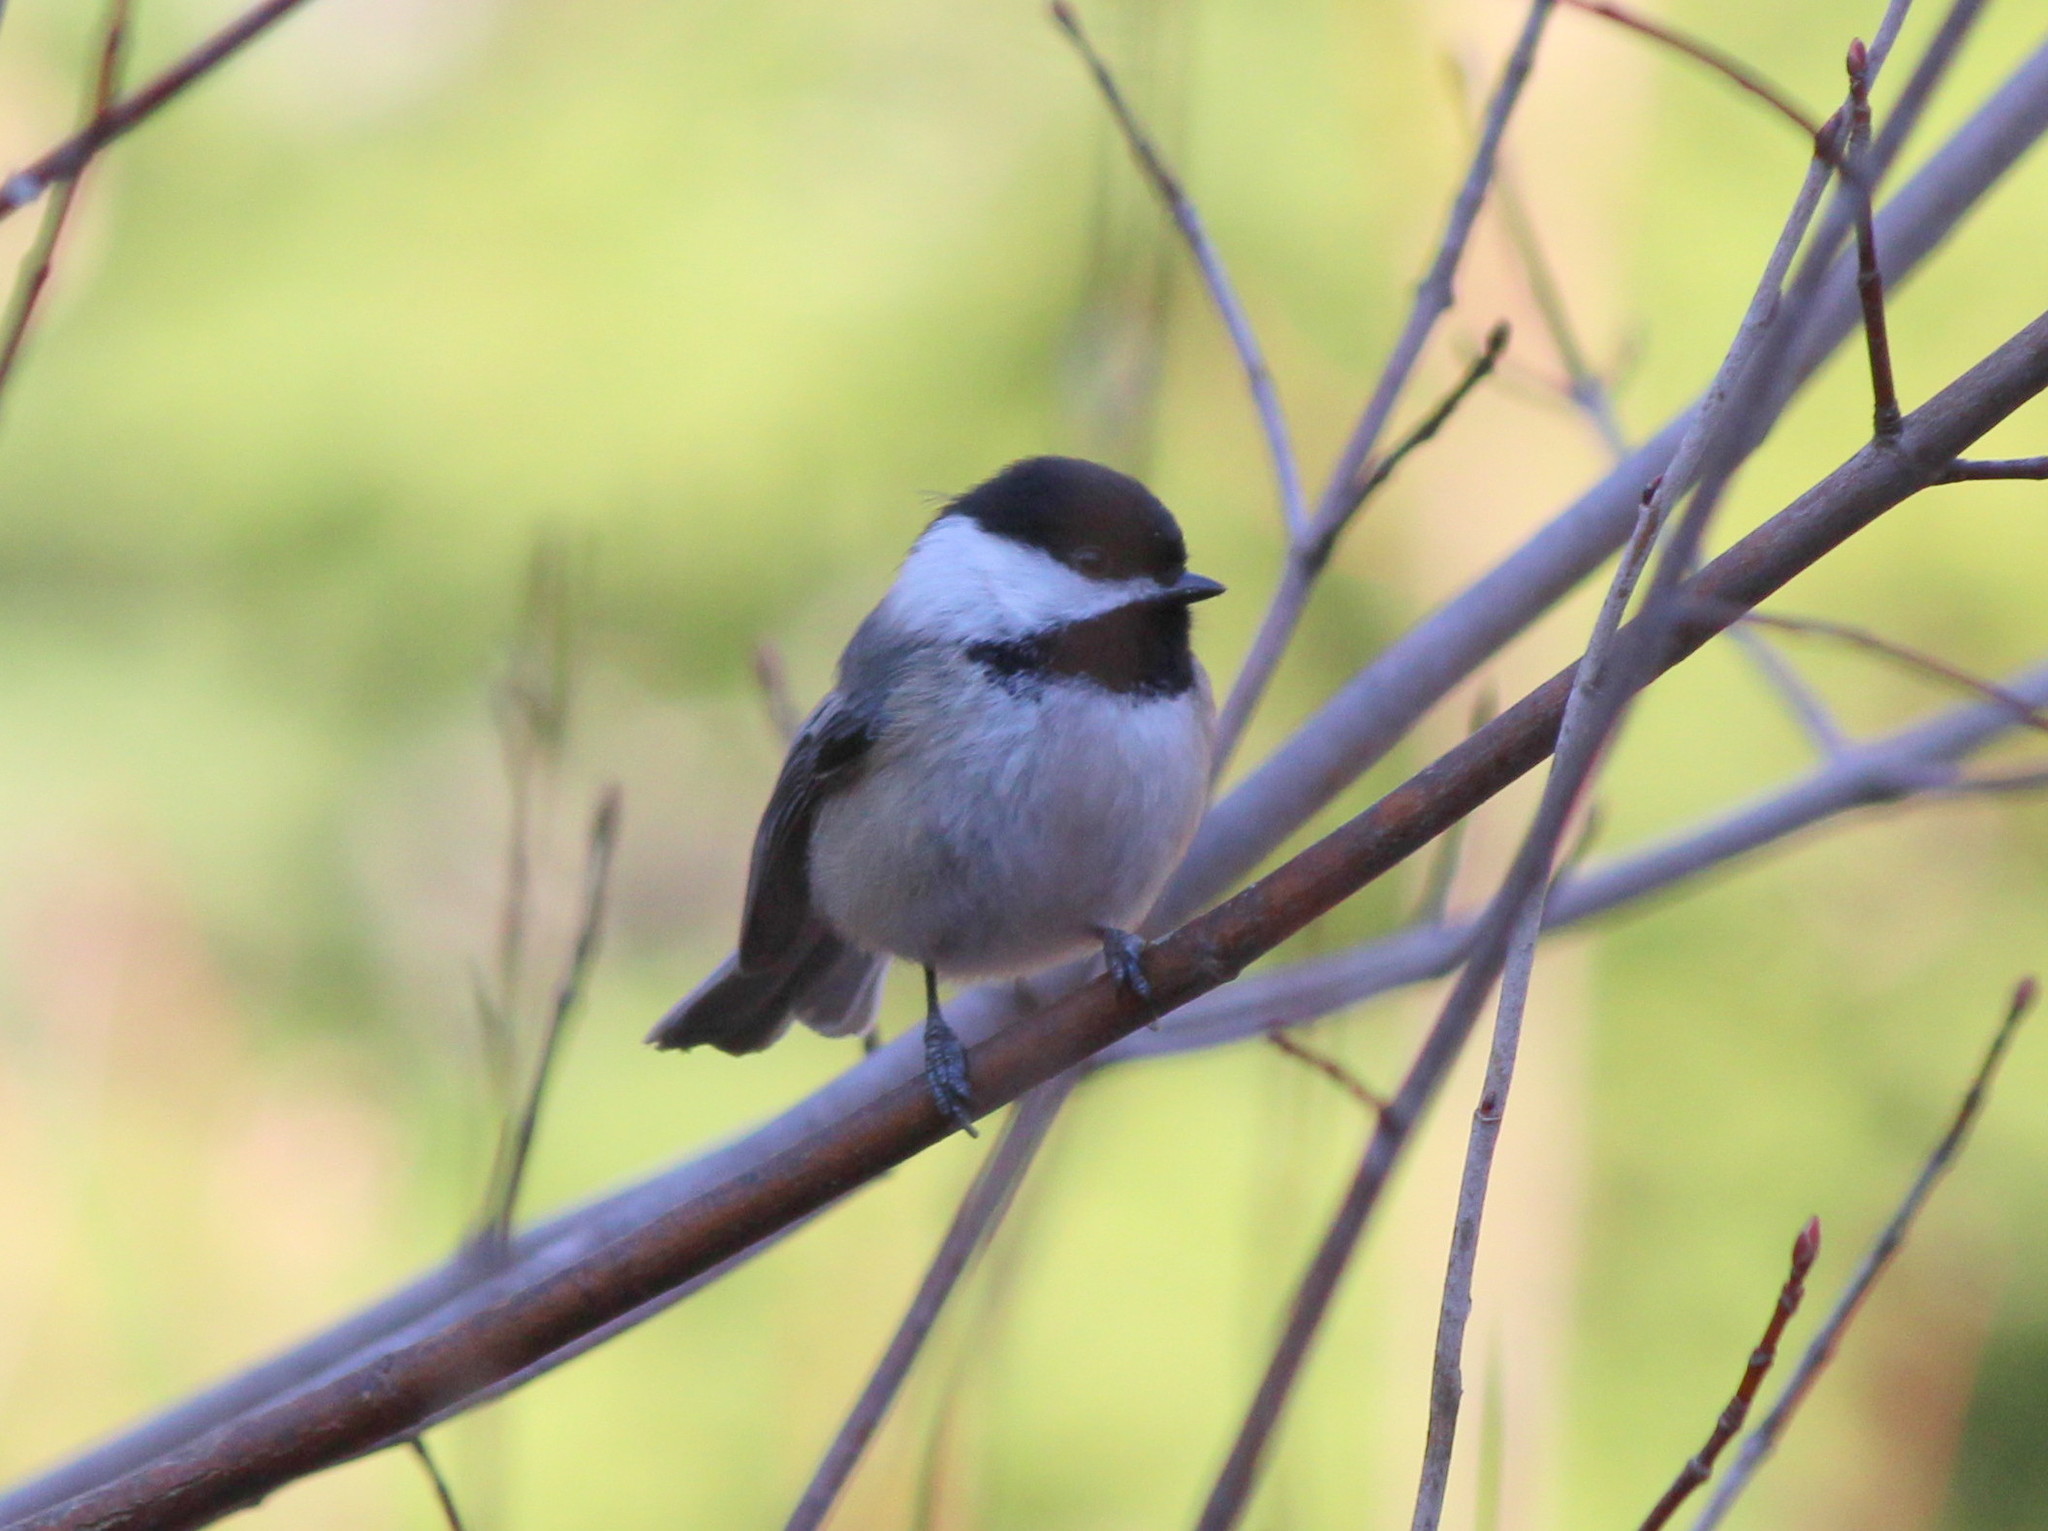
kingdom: Animalia
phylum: Chordata
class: Aves
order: Passeriformes
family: Paridae
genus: Poecile
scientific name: Poecile atricapillus
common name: Black-capped chickadee
